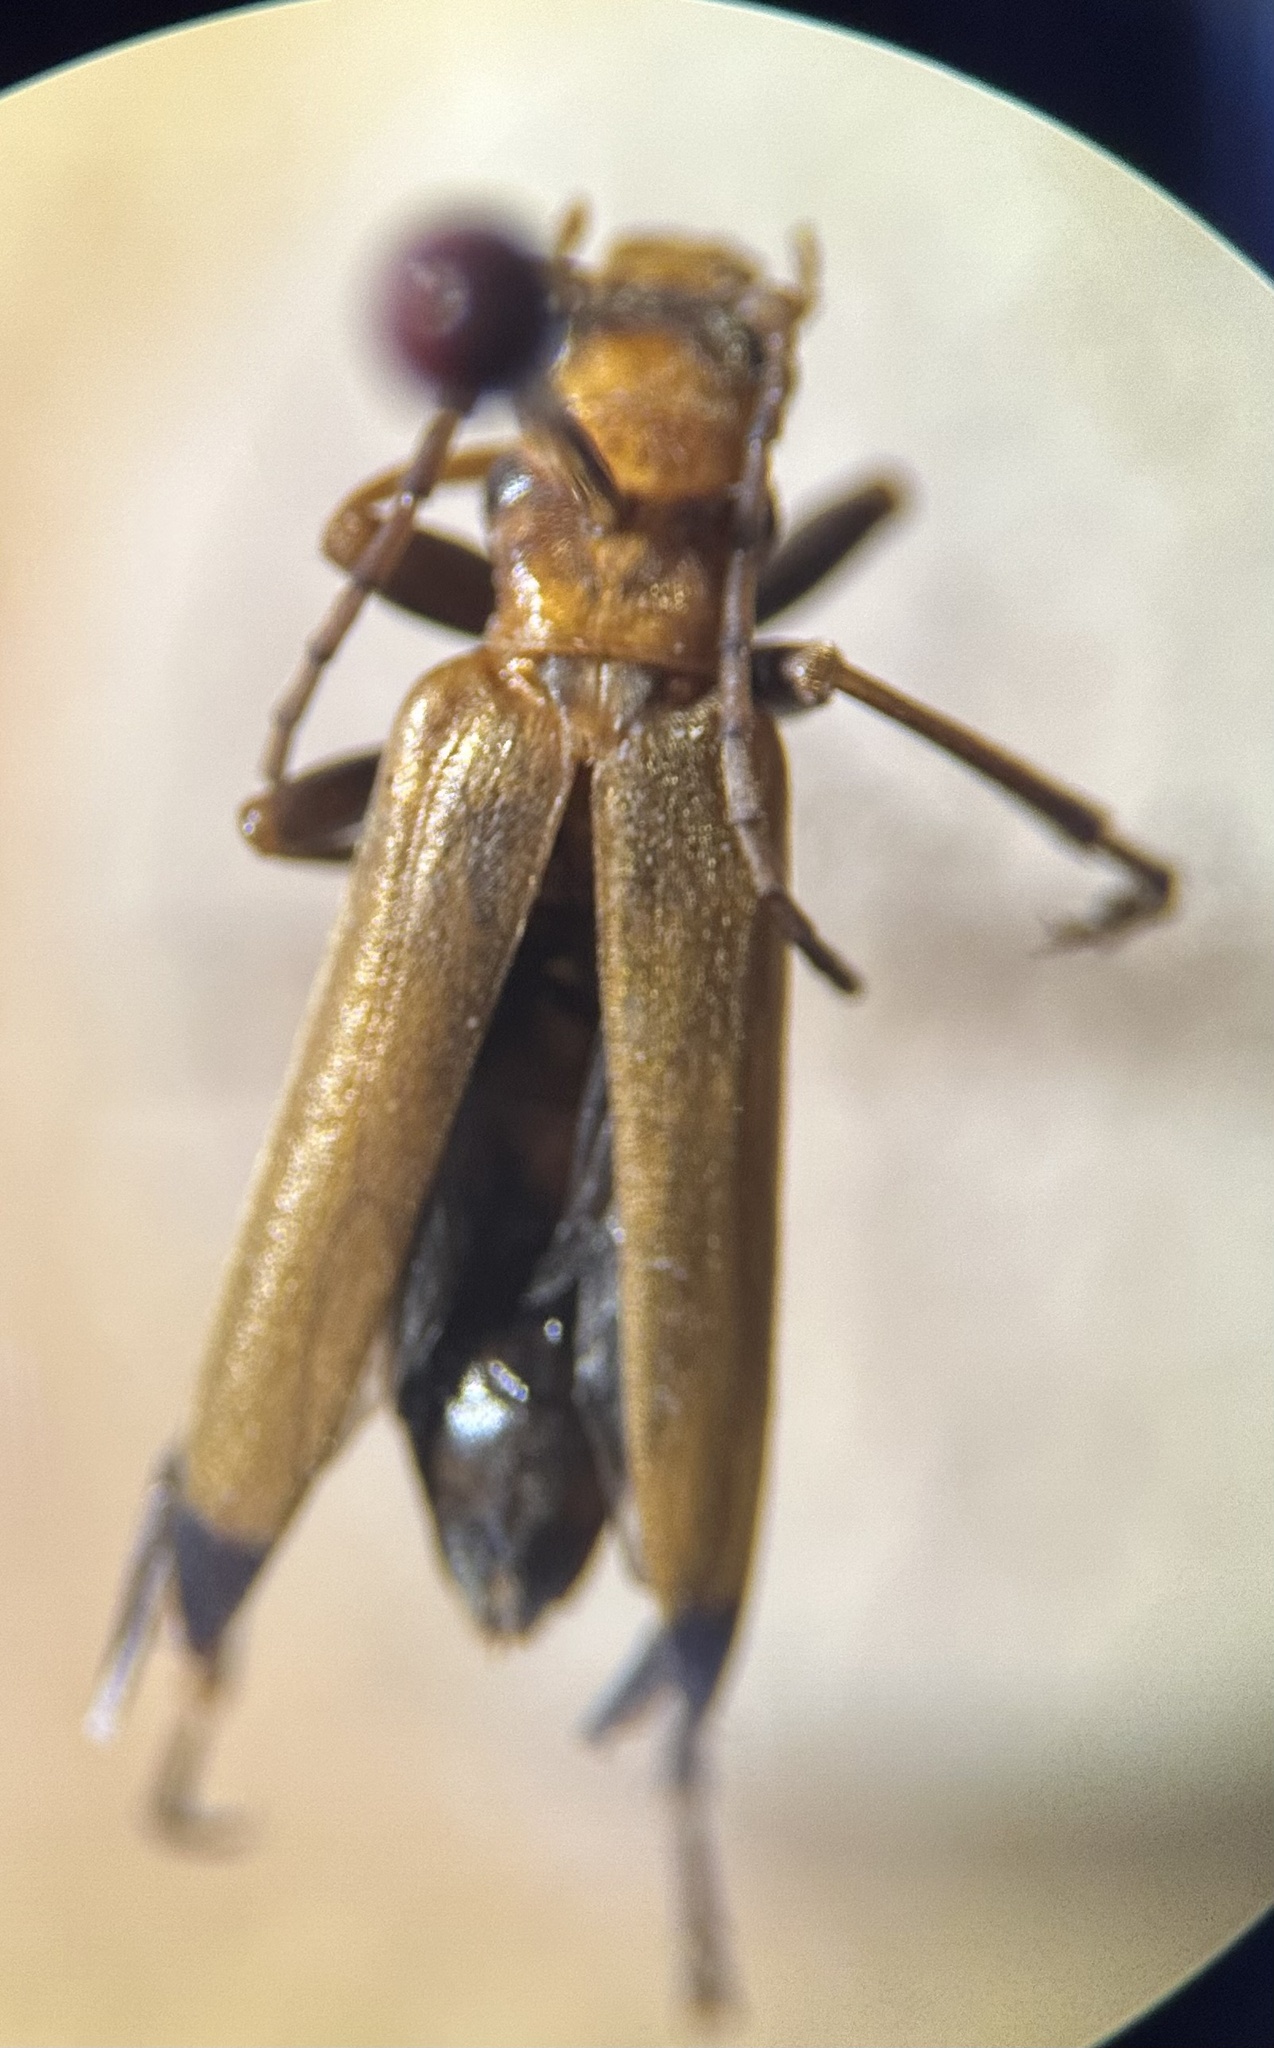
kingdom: Animalia
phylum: Arthropoda
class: Insecta
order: Coleoptera
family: Oedemeridae
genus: Nacerdes
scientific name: Nacerdes melanura
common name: Wharf borer
